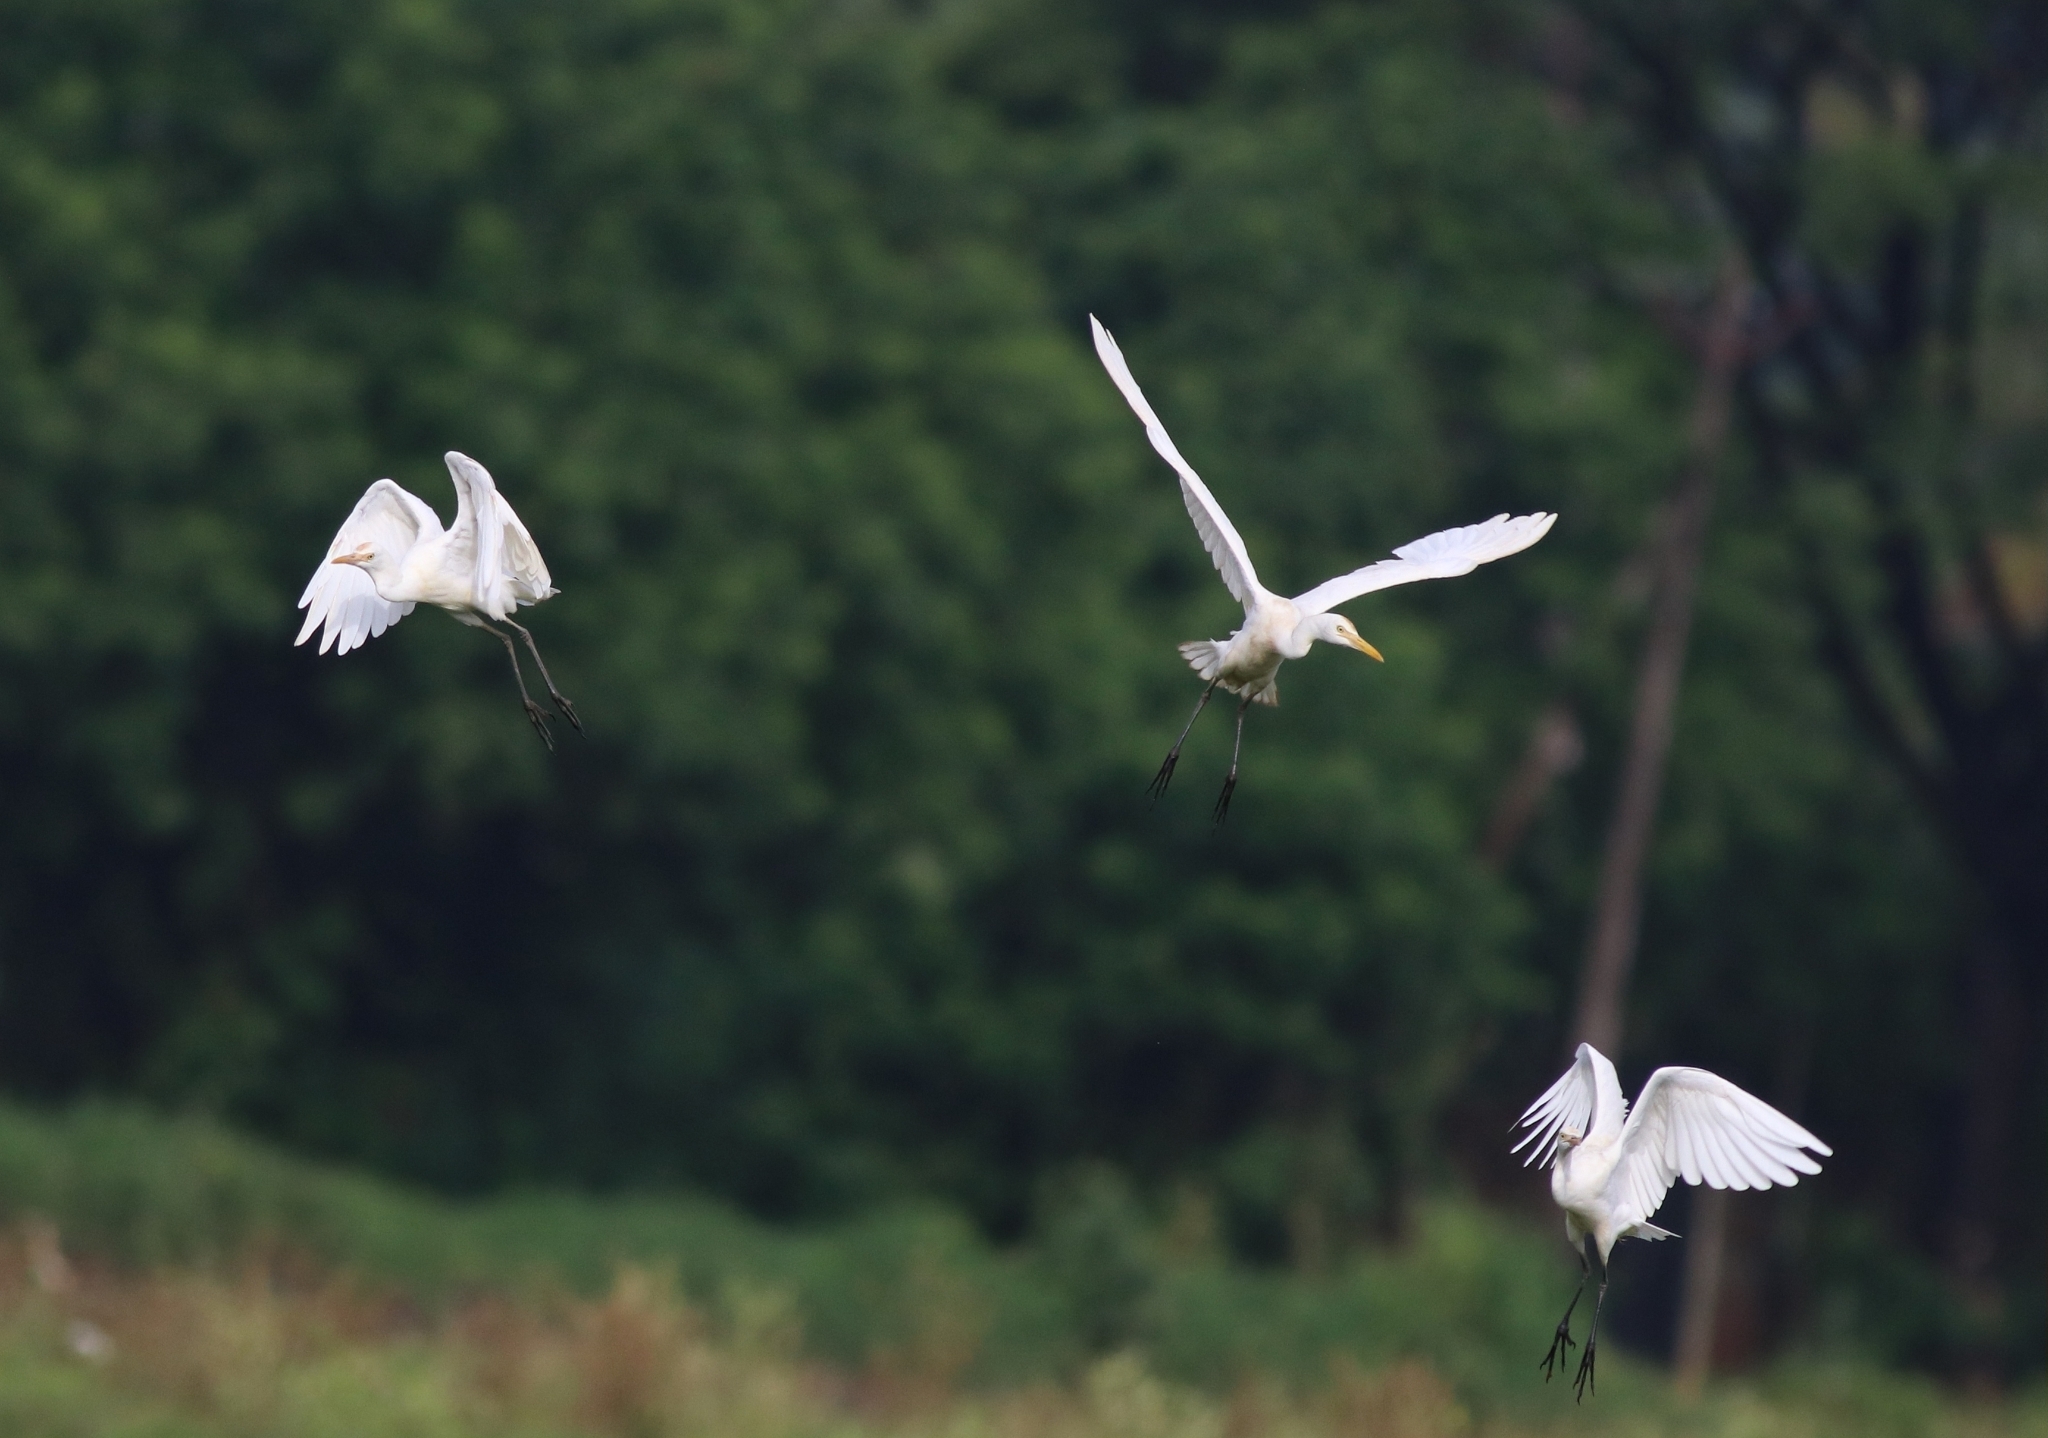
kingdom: Animalia
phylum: Chordata
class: Aves
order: Pelecaniformes
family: Ardeidae
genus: Bubulcus
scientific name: Bubulcus coromandus
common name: Eastern cattle egret
